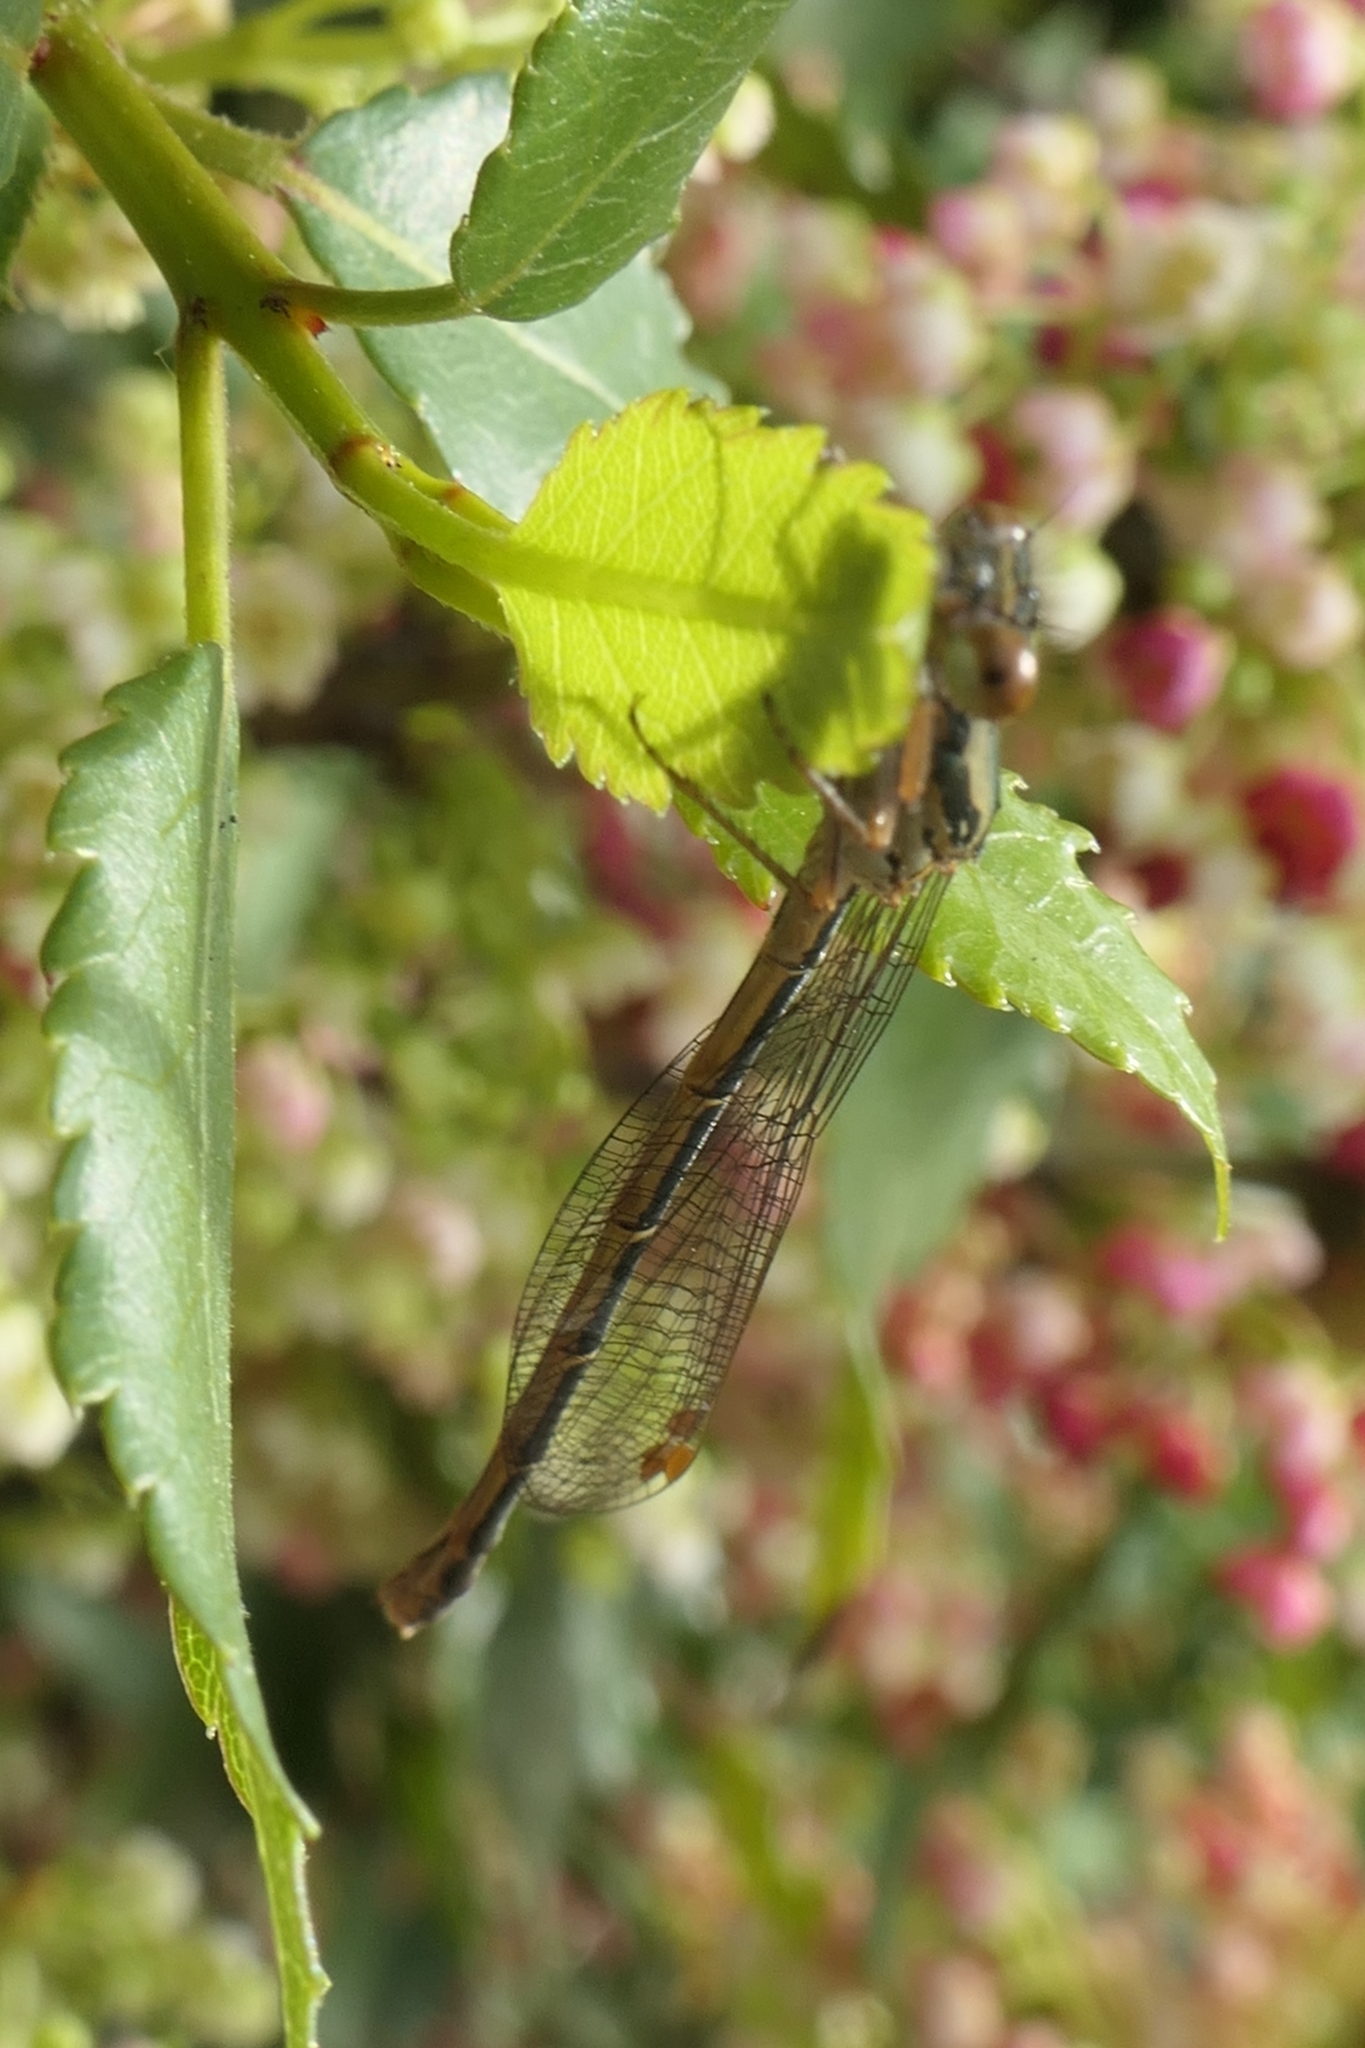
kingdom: Animalia
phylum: Arthropoda
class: Insecta
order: Odonata
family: Coenagrionidae
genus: Xanthocnemis
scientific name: Xanthocnemis zealandica
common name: Common redcoat damselfly
